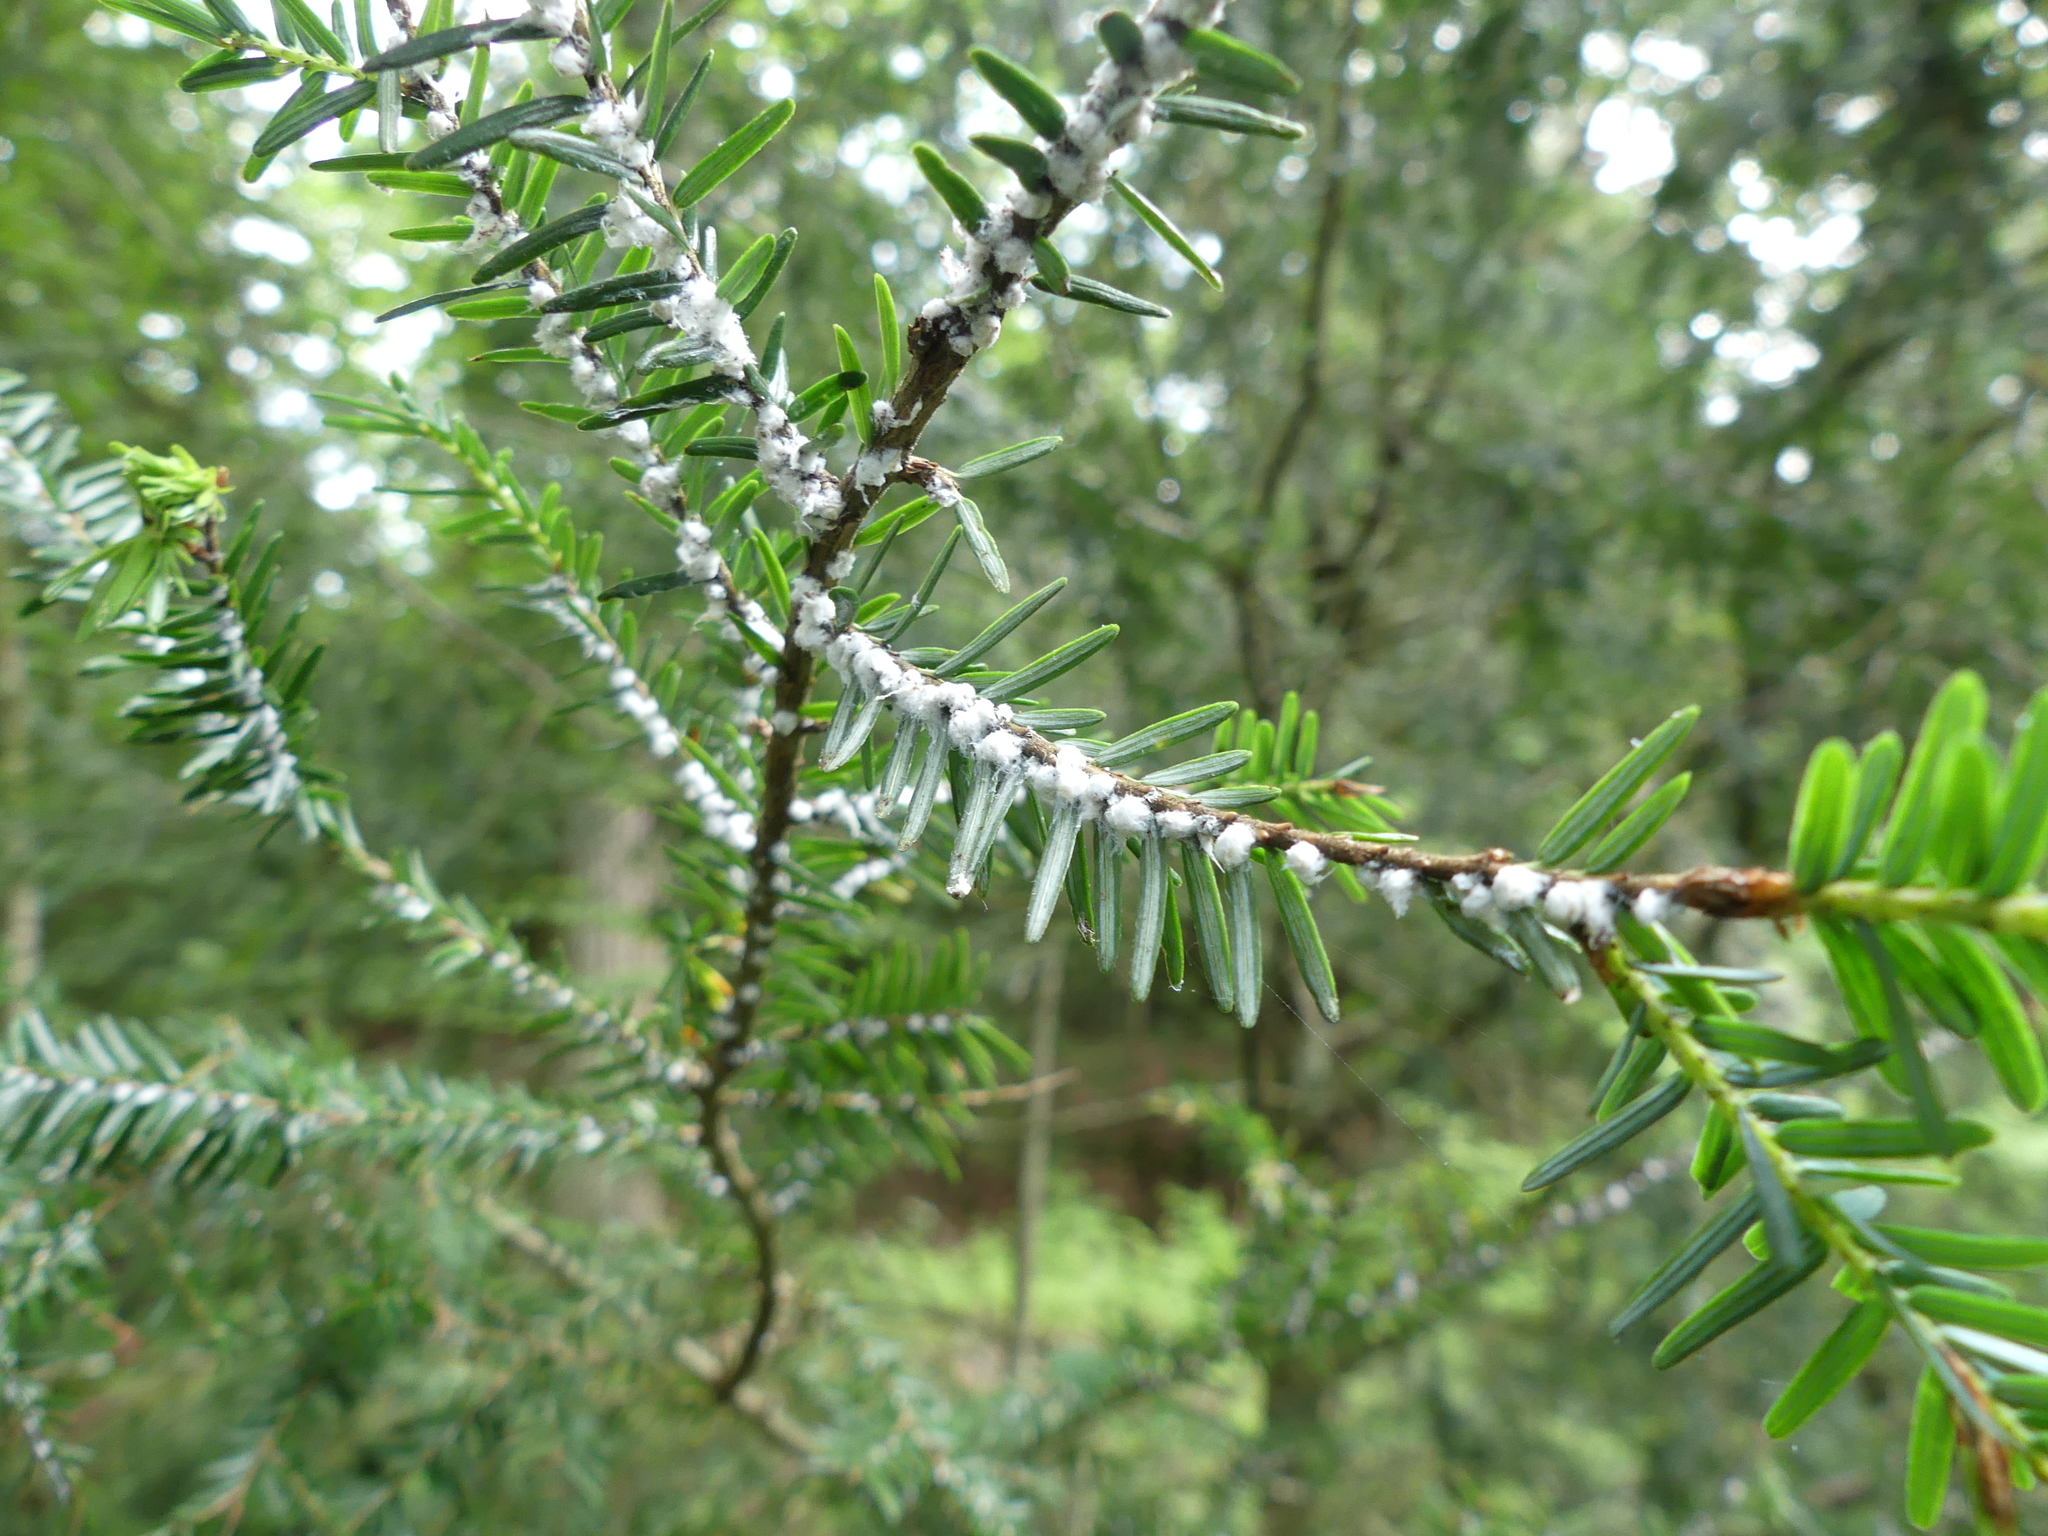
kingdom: Plantae
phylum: Tracheophyta
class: Pinopsida
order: Pinales
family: Pinaceae
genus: Tsuga
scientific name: Tsuga canadensis
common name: Eastern hemlock
